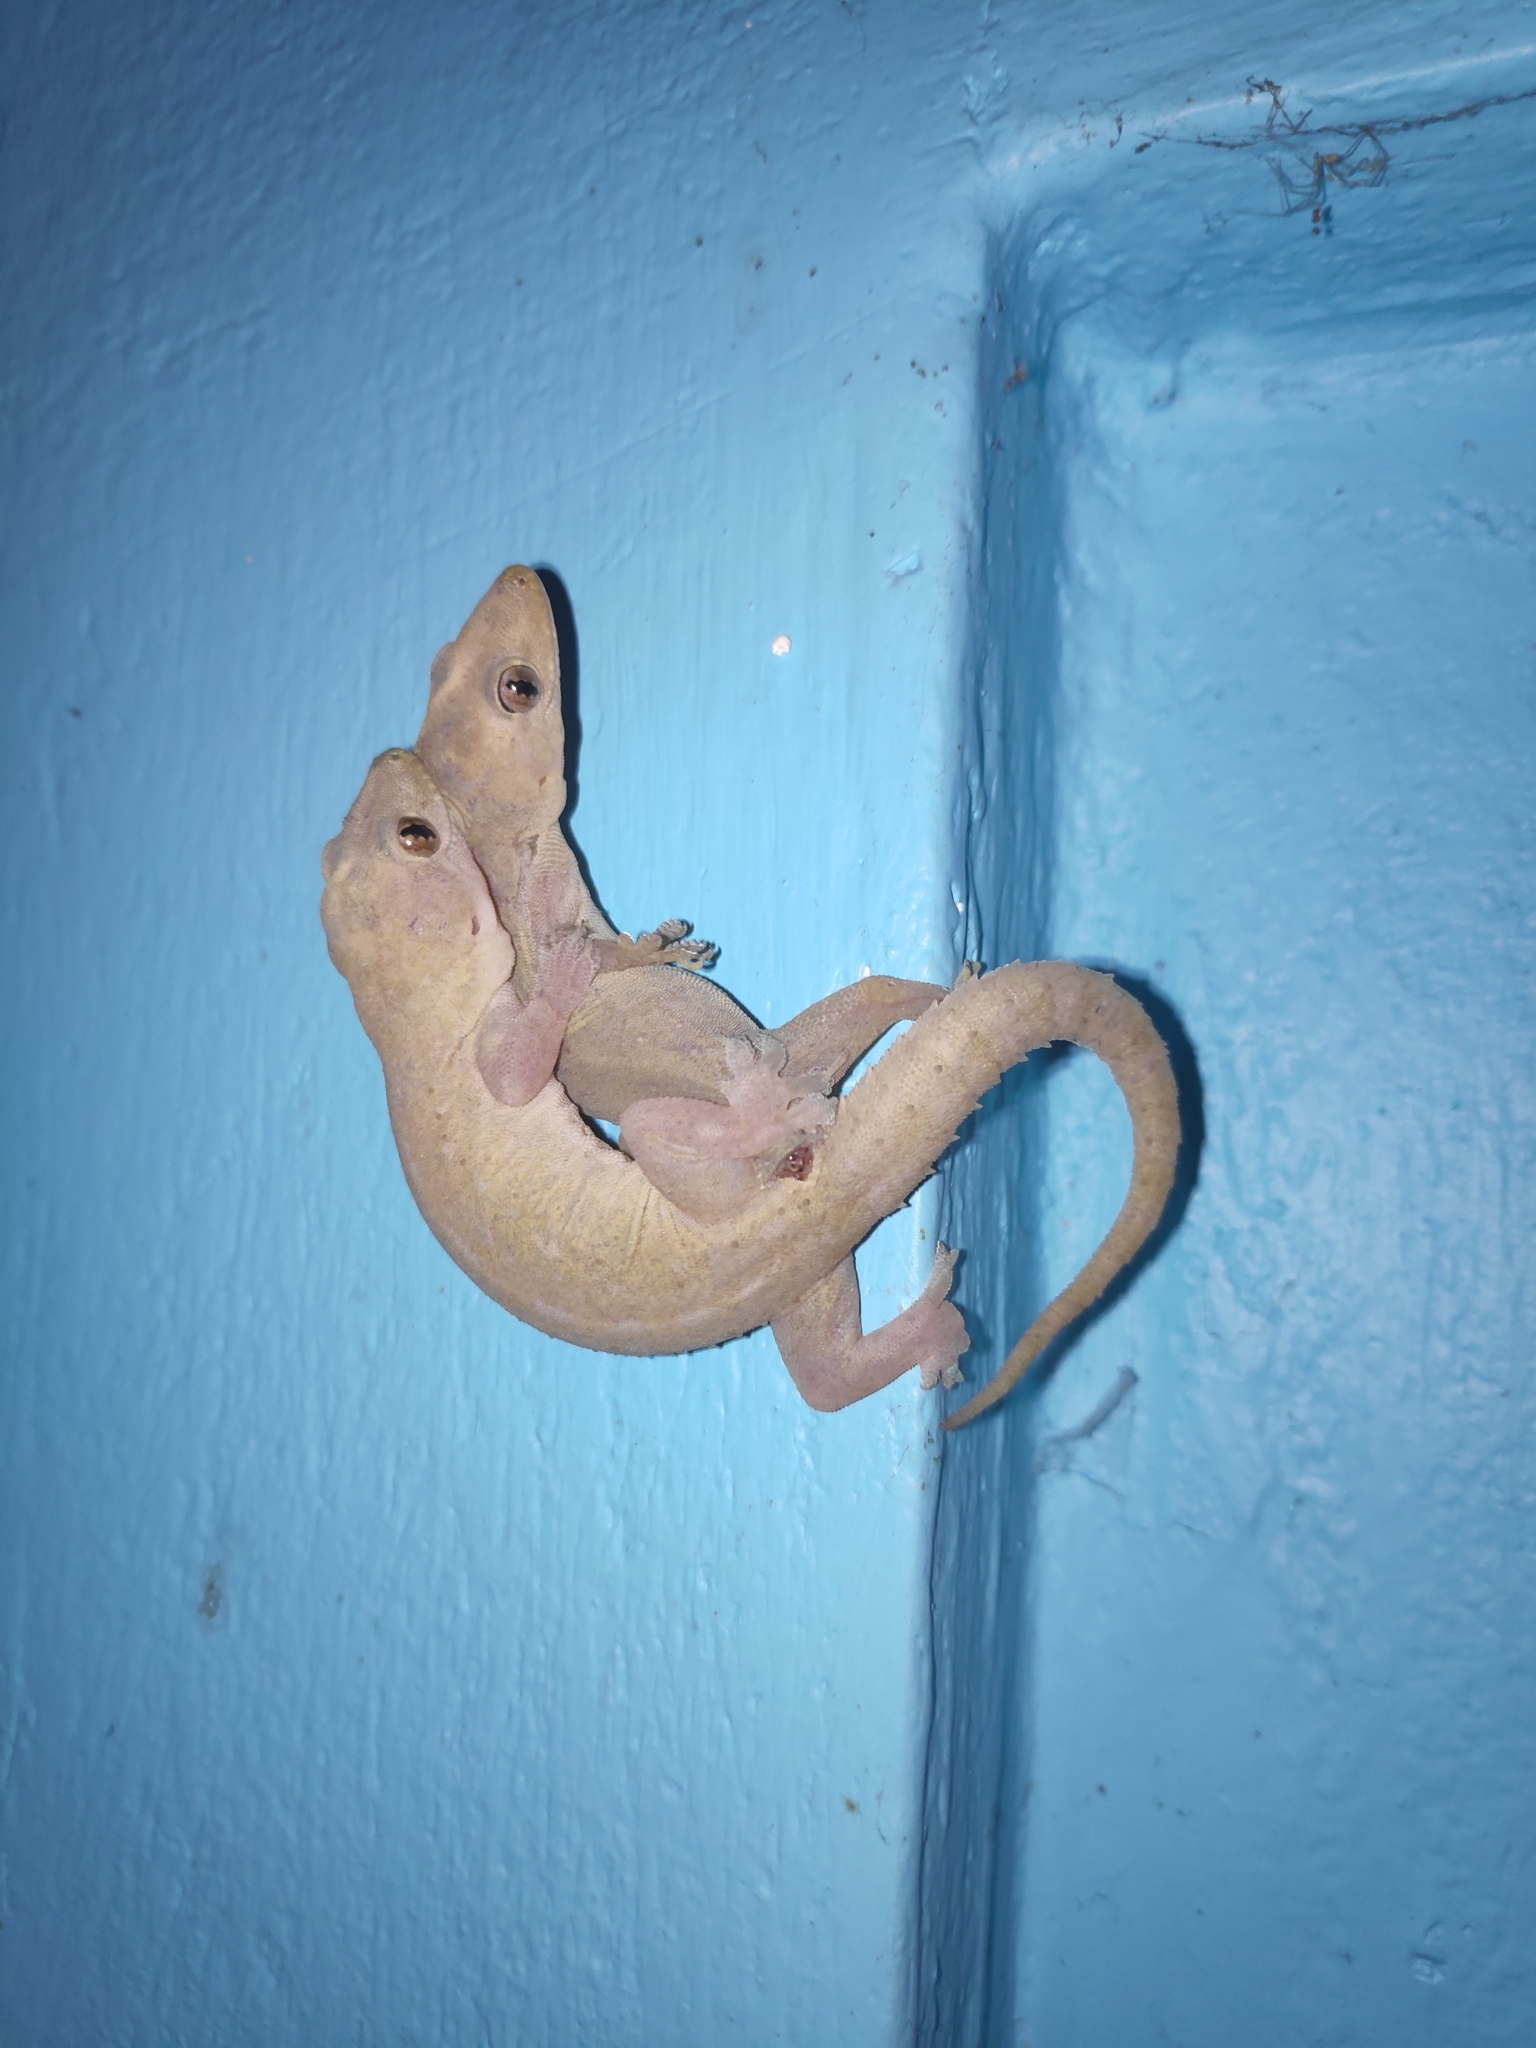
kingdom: Animalia
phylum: Chordata
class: Squamata
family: Gekkonidae
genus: Hemidactylus
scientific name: Hemidactylus frenatus
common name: Common house gecko
